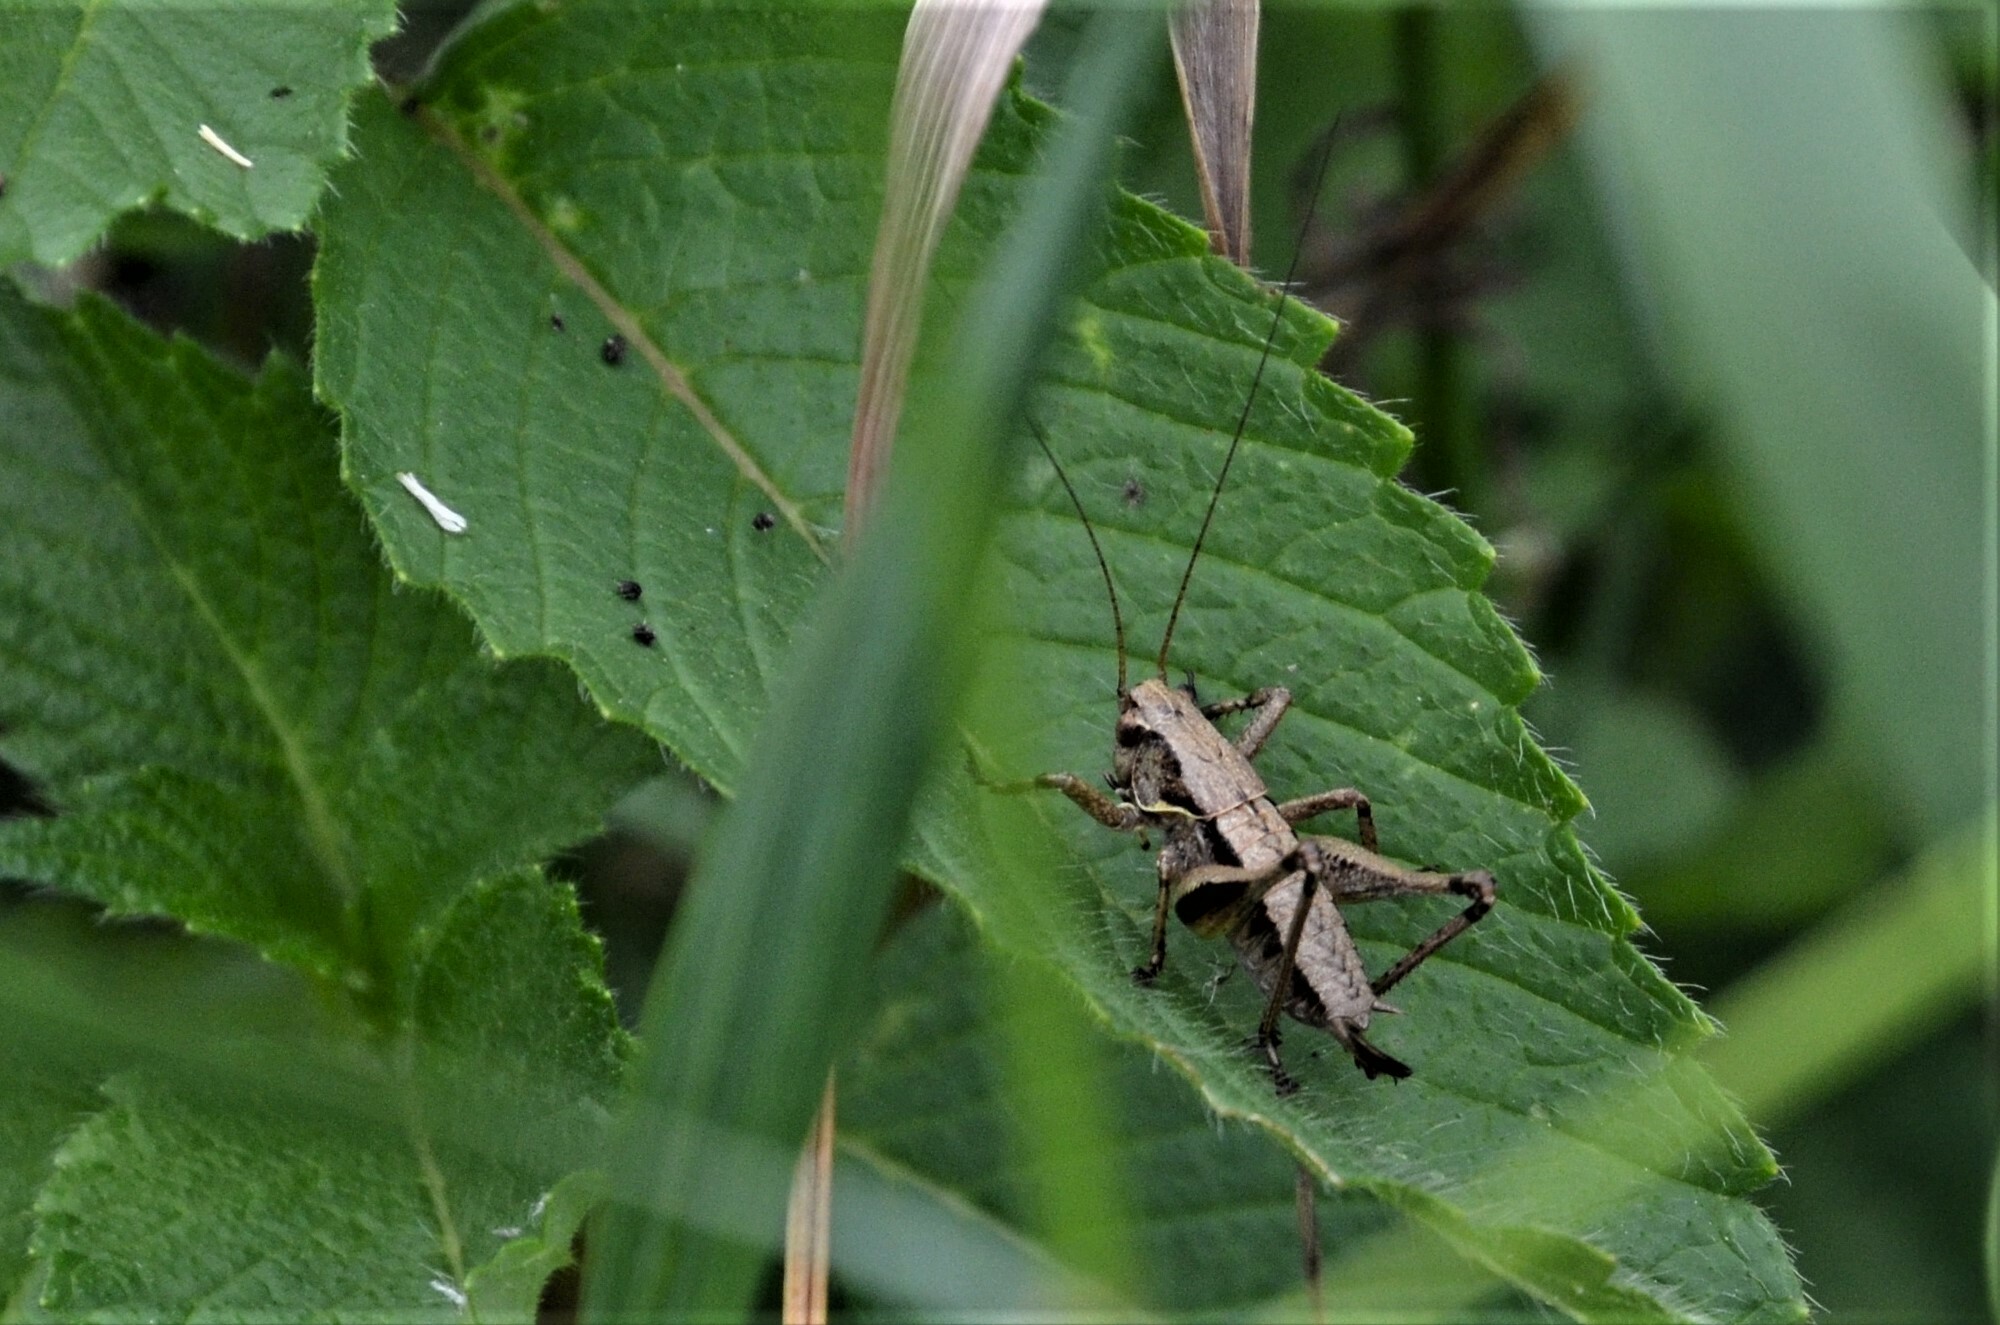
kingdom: Animalia
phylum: Arthropoda
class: Insecta
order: Orthoptera
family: Tettigoniidae
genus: Pholidoptera
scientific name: Pholidoptera griseoaptera
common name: Dark bush-cricket
